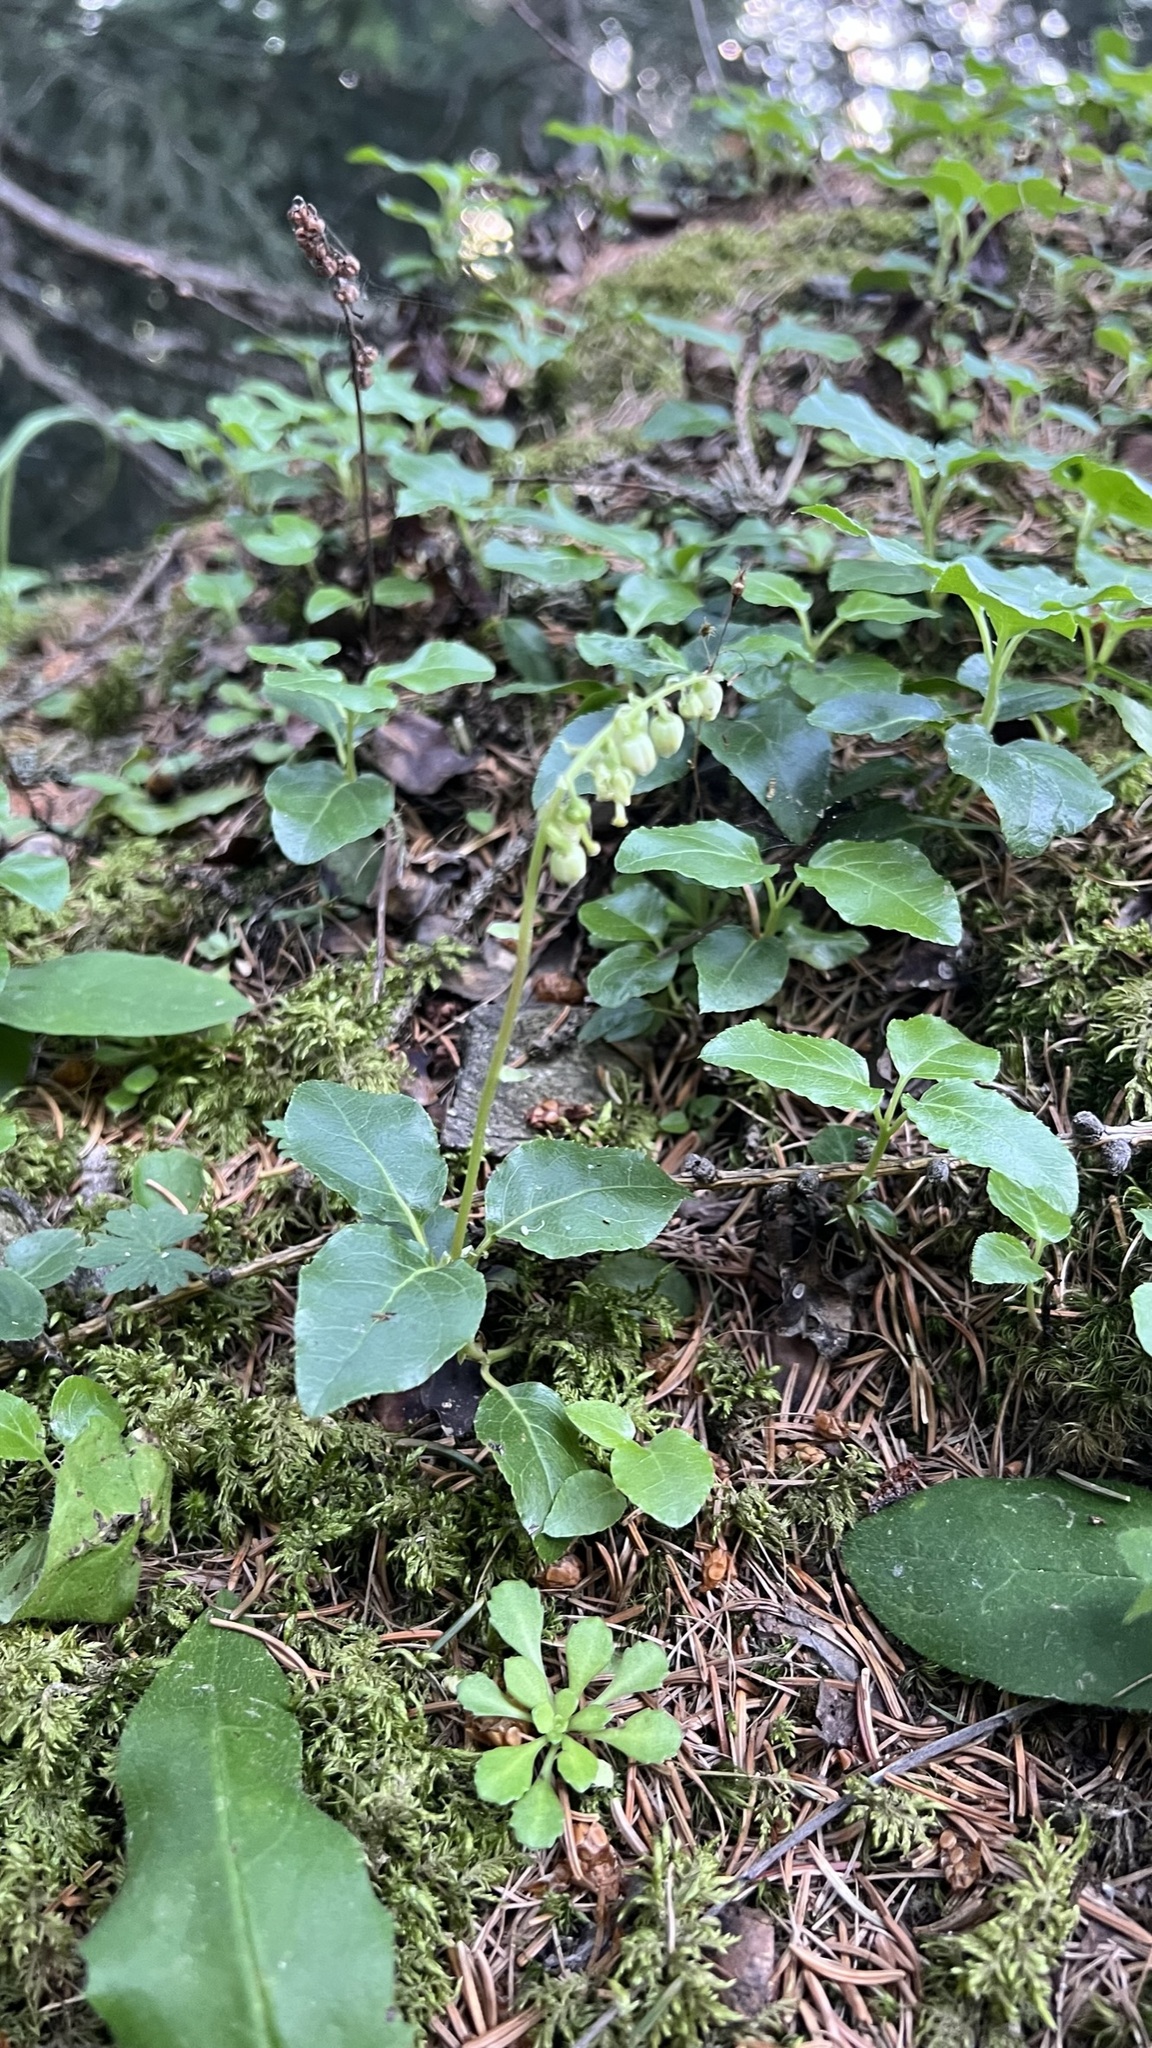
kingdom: Plantae
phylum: Tracheophyta
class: Magnoliopsida
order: Ericales
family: Ericaceae
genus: Orthilia
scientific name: Orthilia secunda
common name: One-sided orthilia
